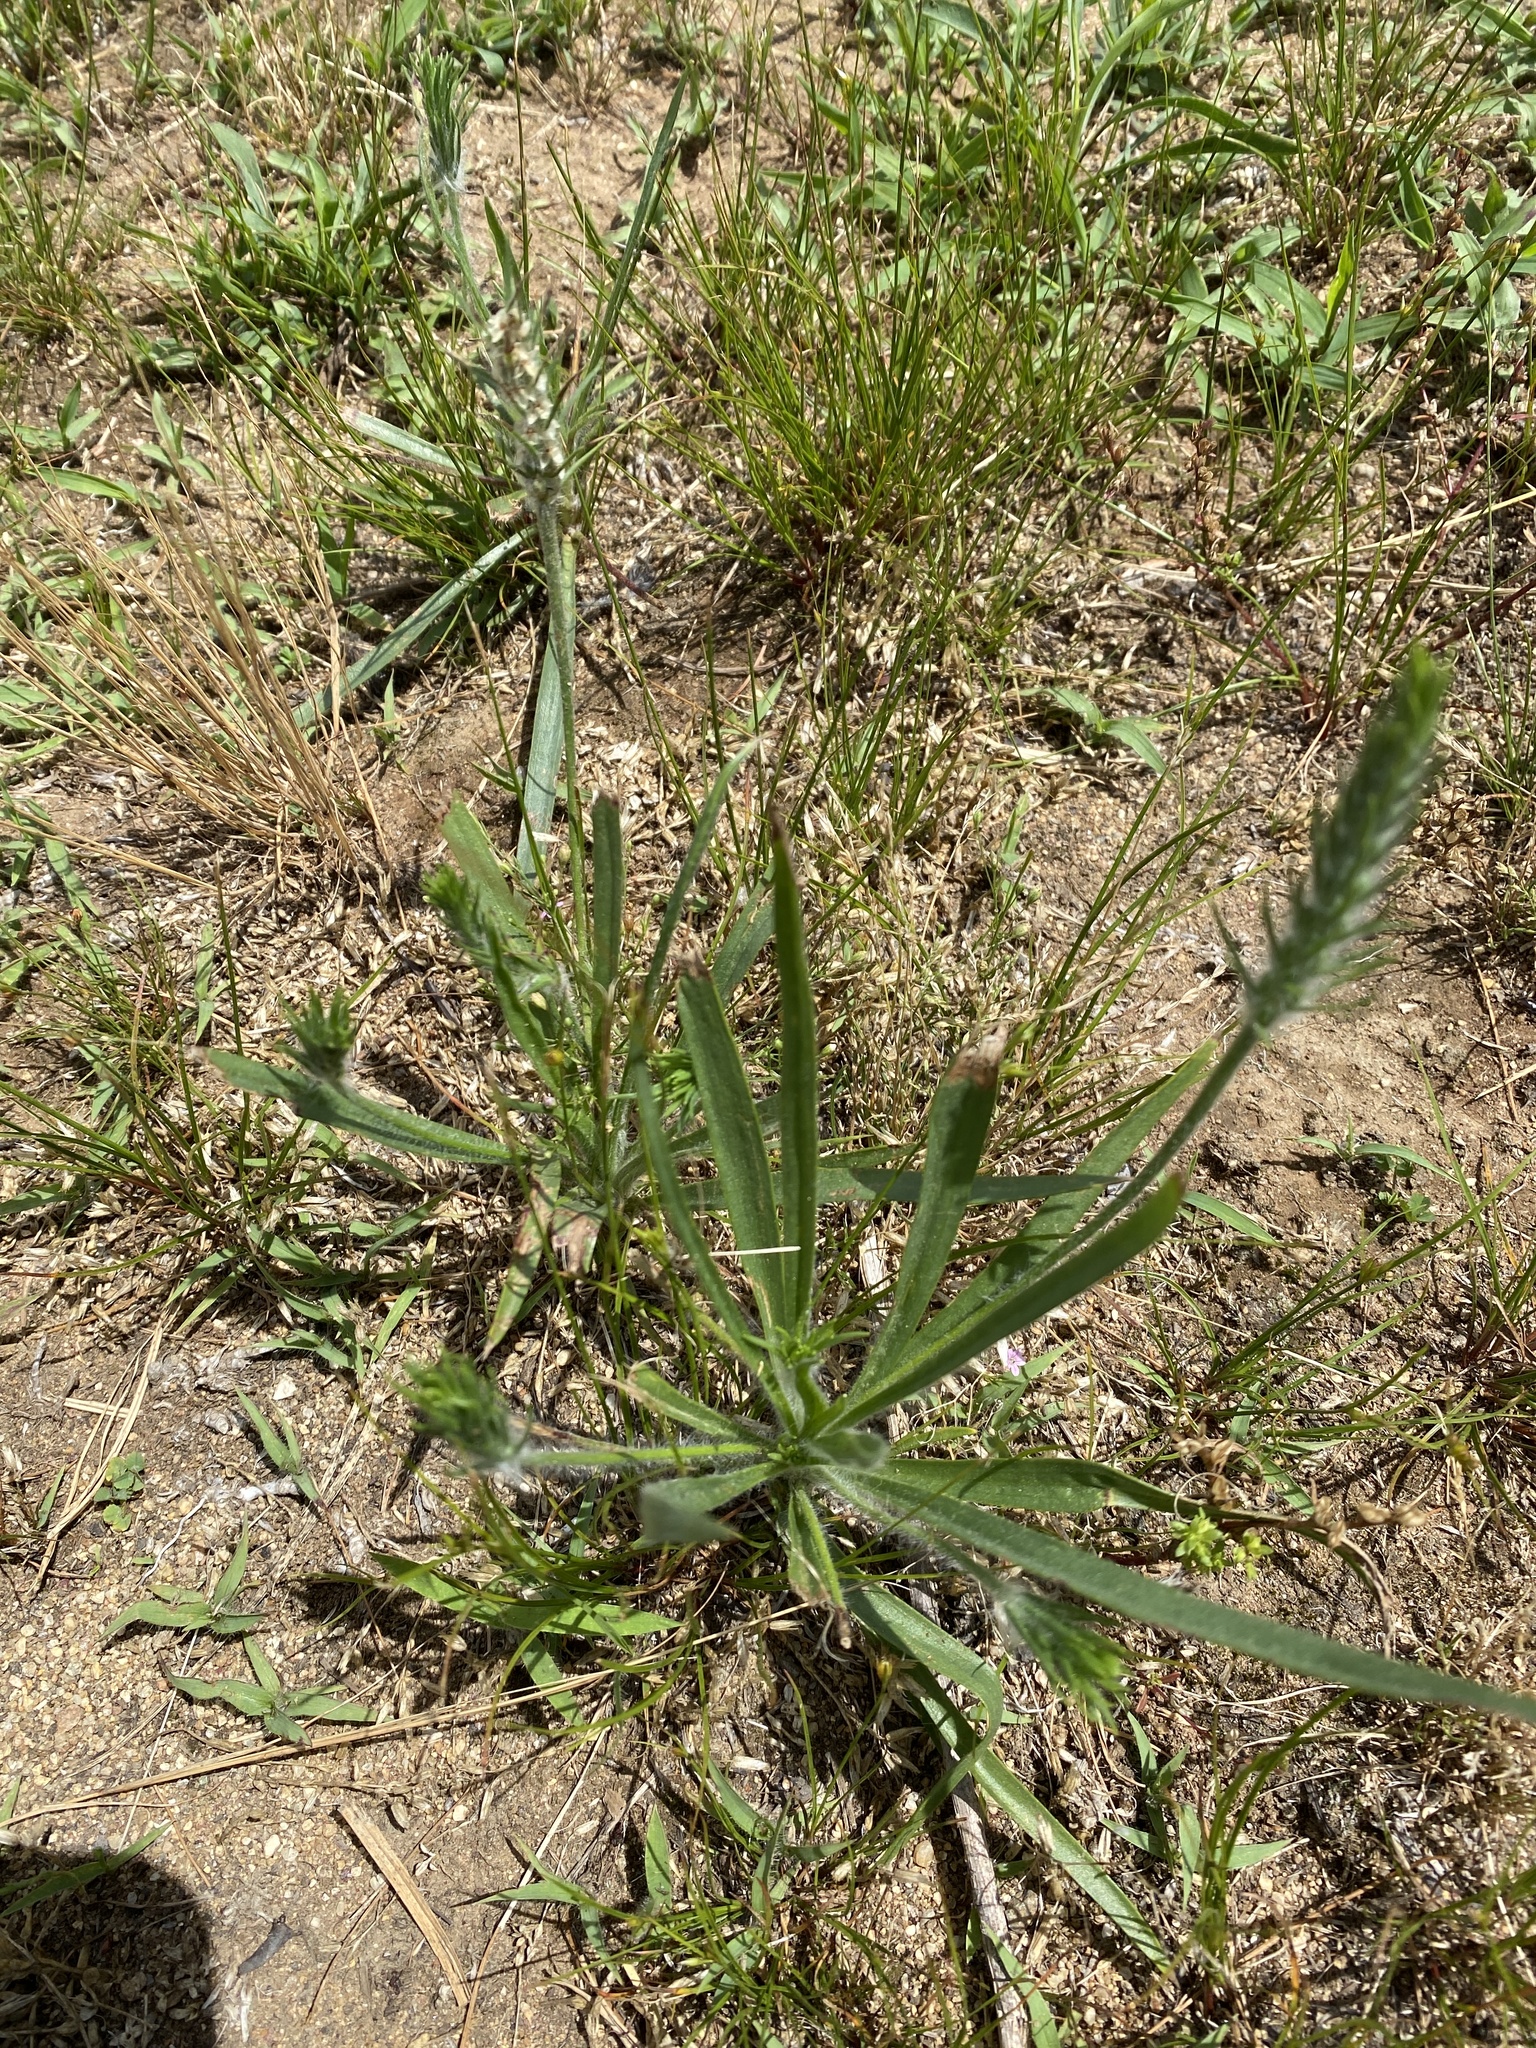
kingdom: Plantae
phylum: Tracheophyta
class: Magnoliopsida
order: Lamiales
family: Plantaginaceae
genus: Plantago
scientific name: Plantago aristata
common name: Bracted plantain
